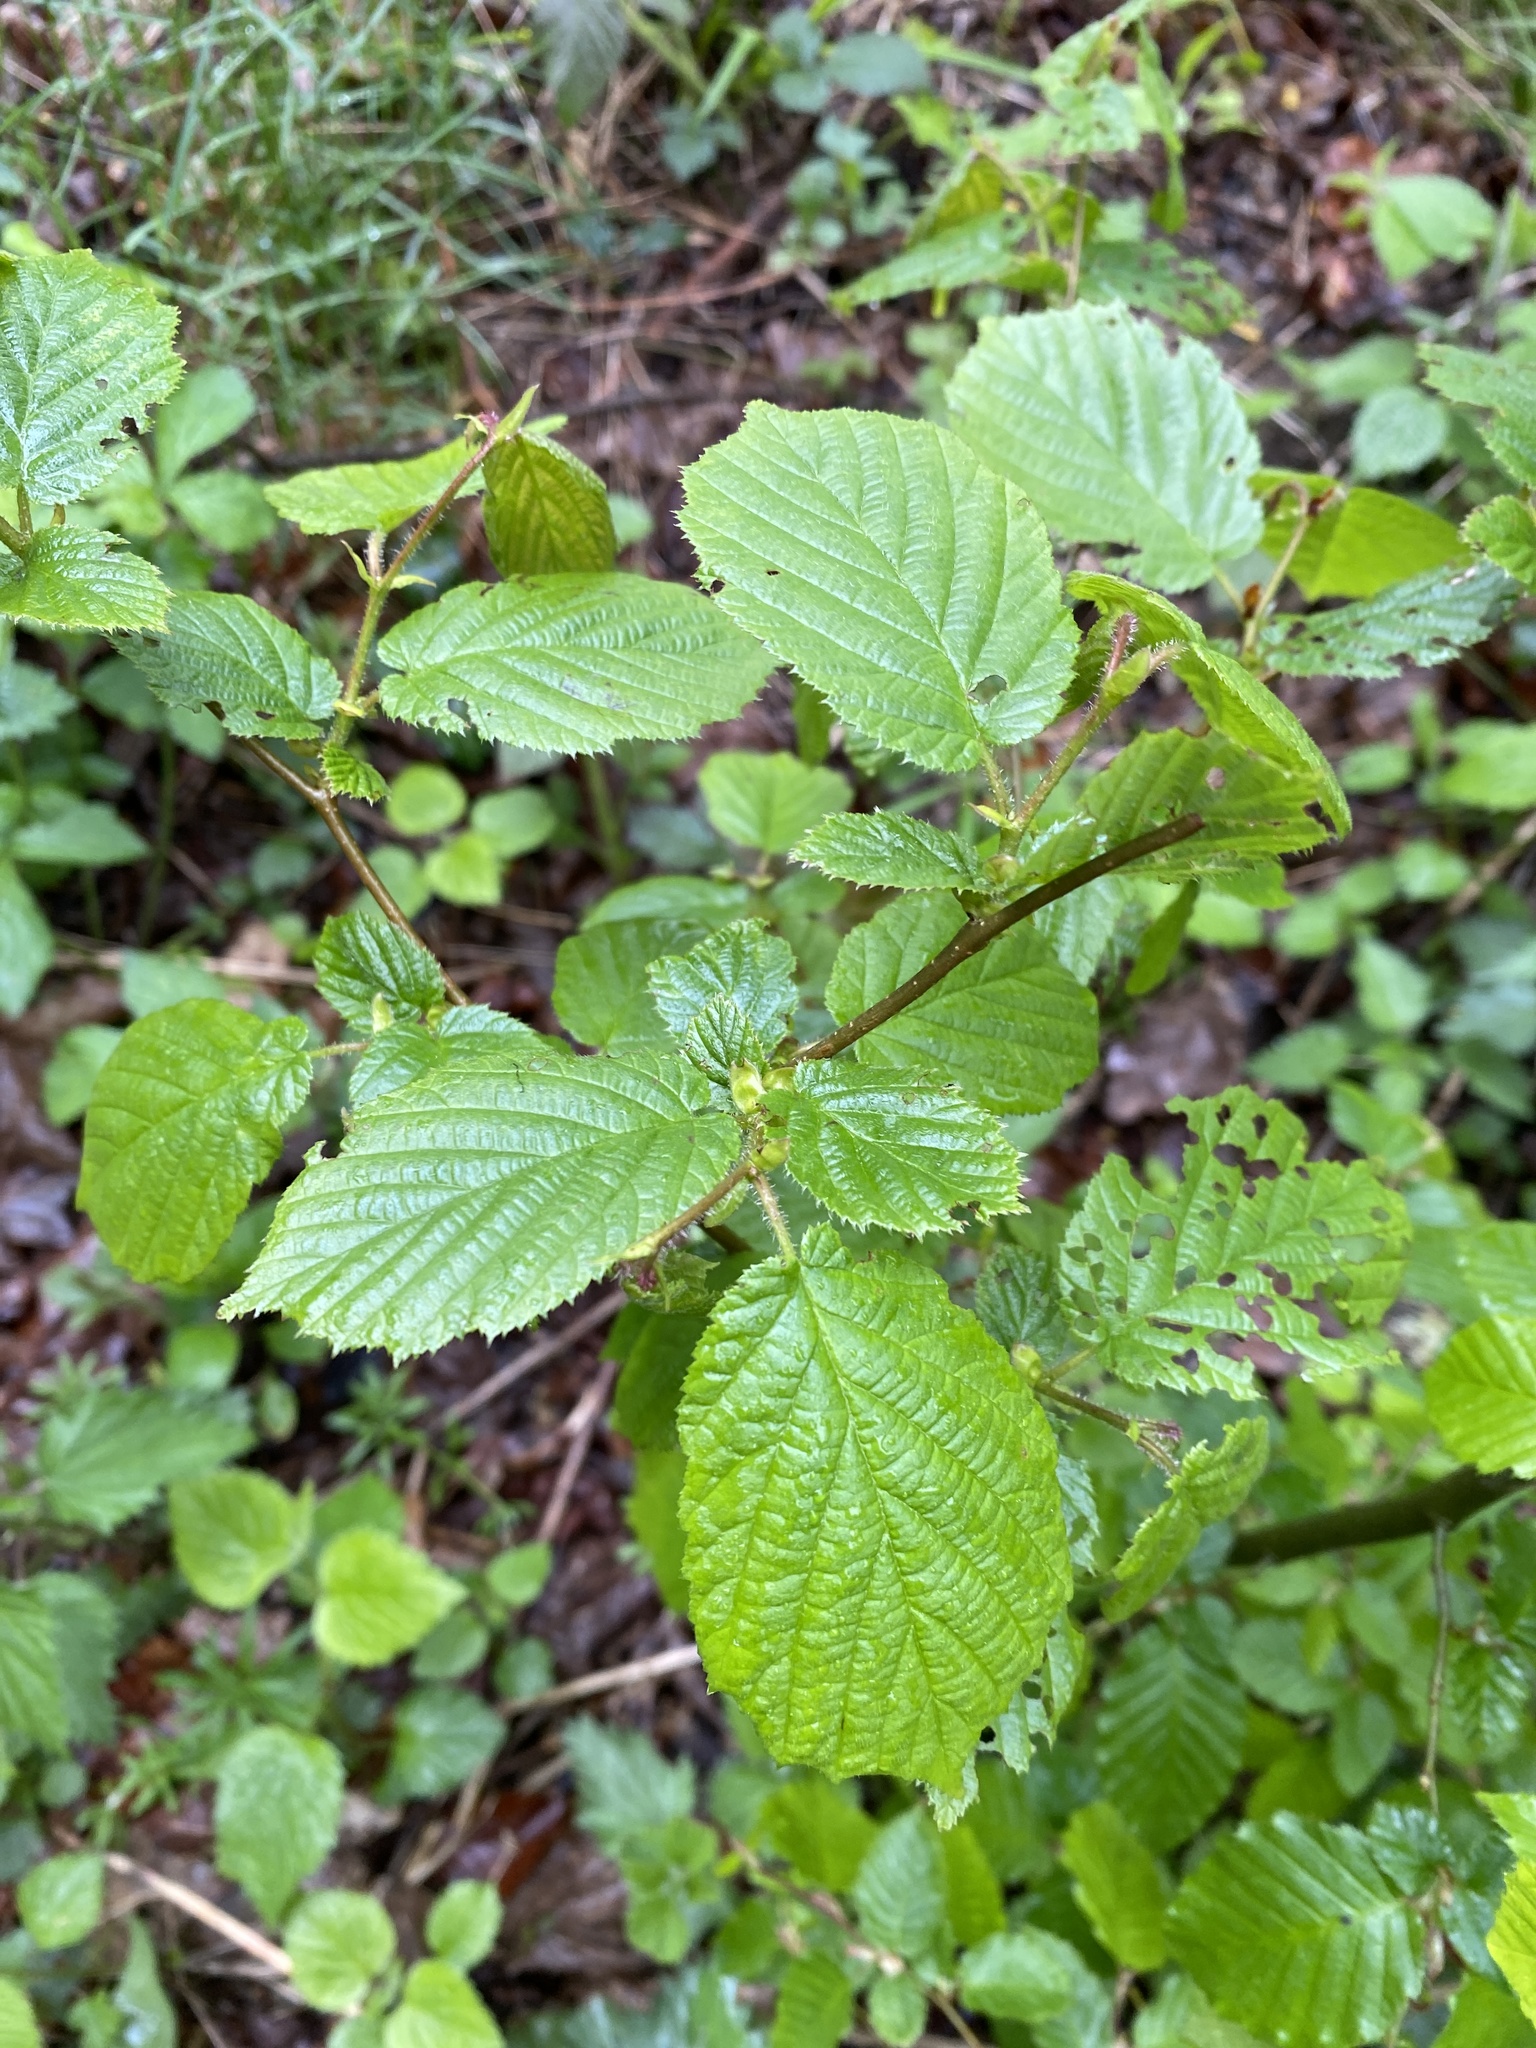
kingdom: Plantae
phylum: Tracheophyta
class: Magnoliopsida
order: Fagales
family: Betulaceae
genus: Corylus
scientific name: Corylus avellana
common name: European hazel
